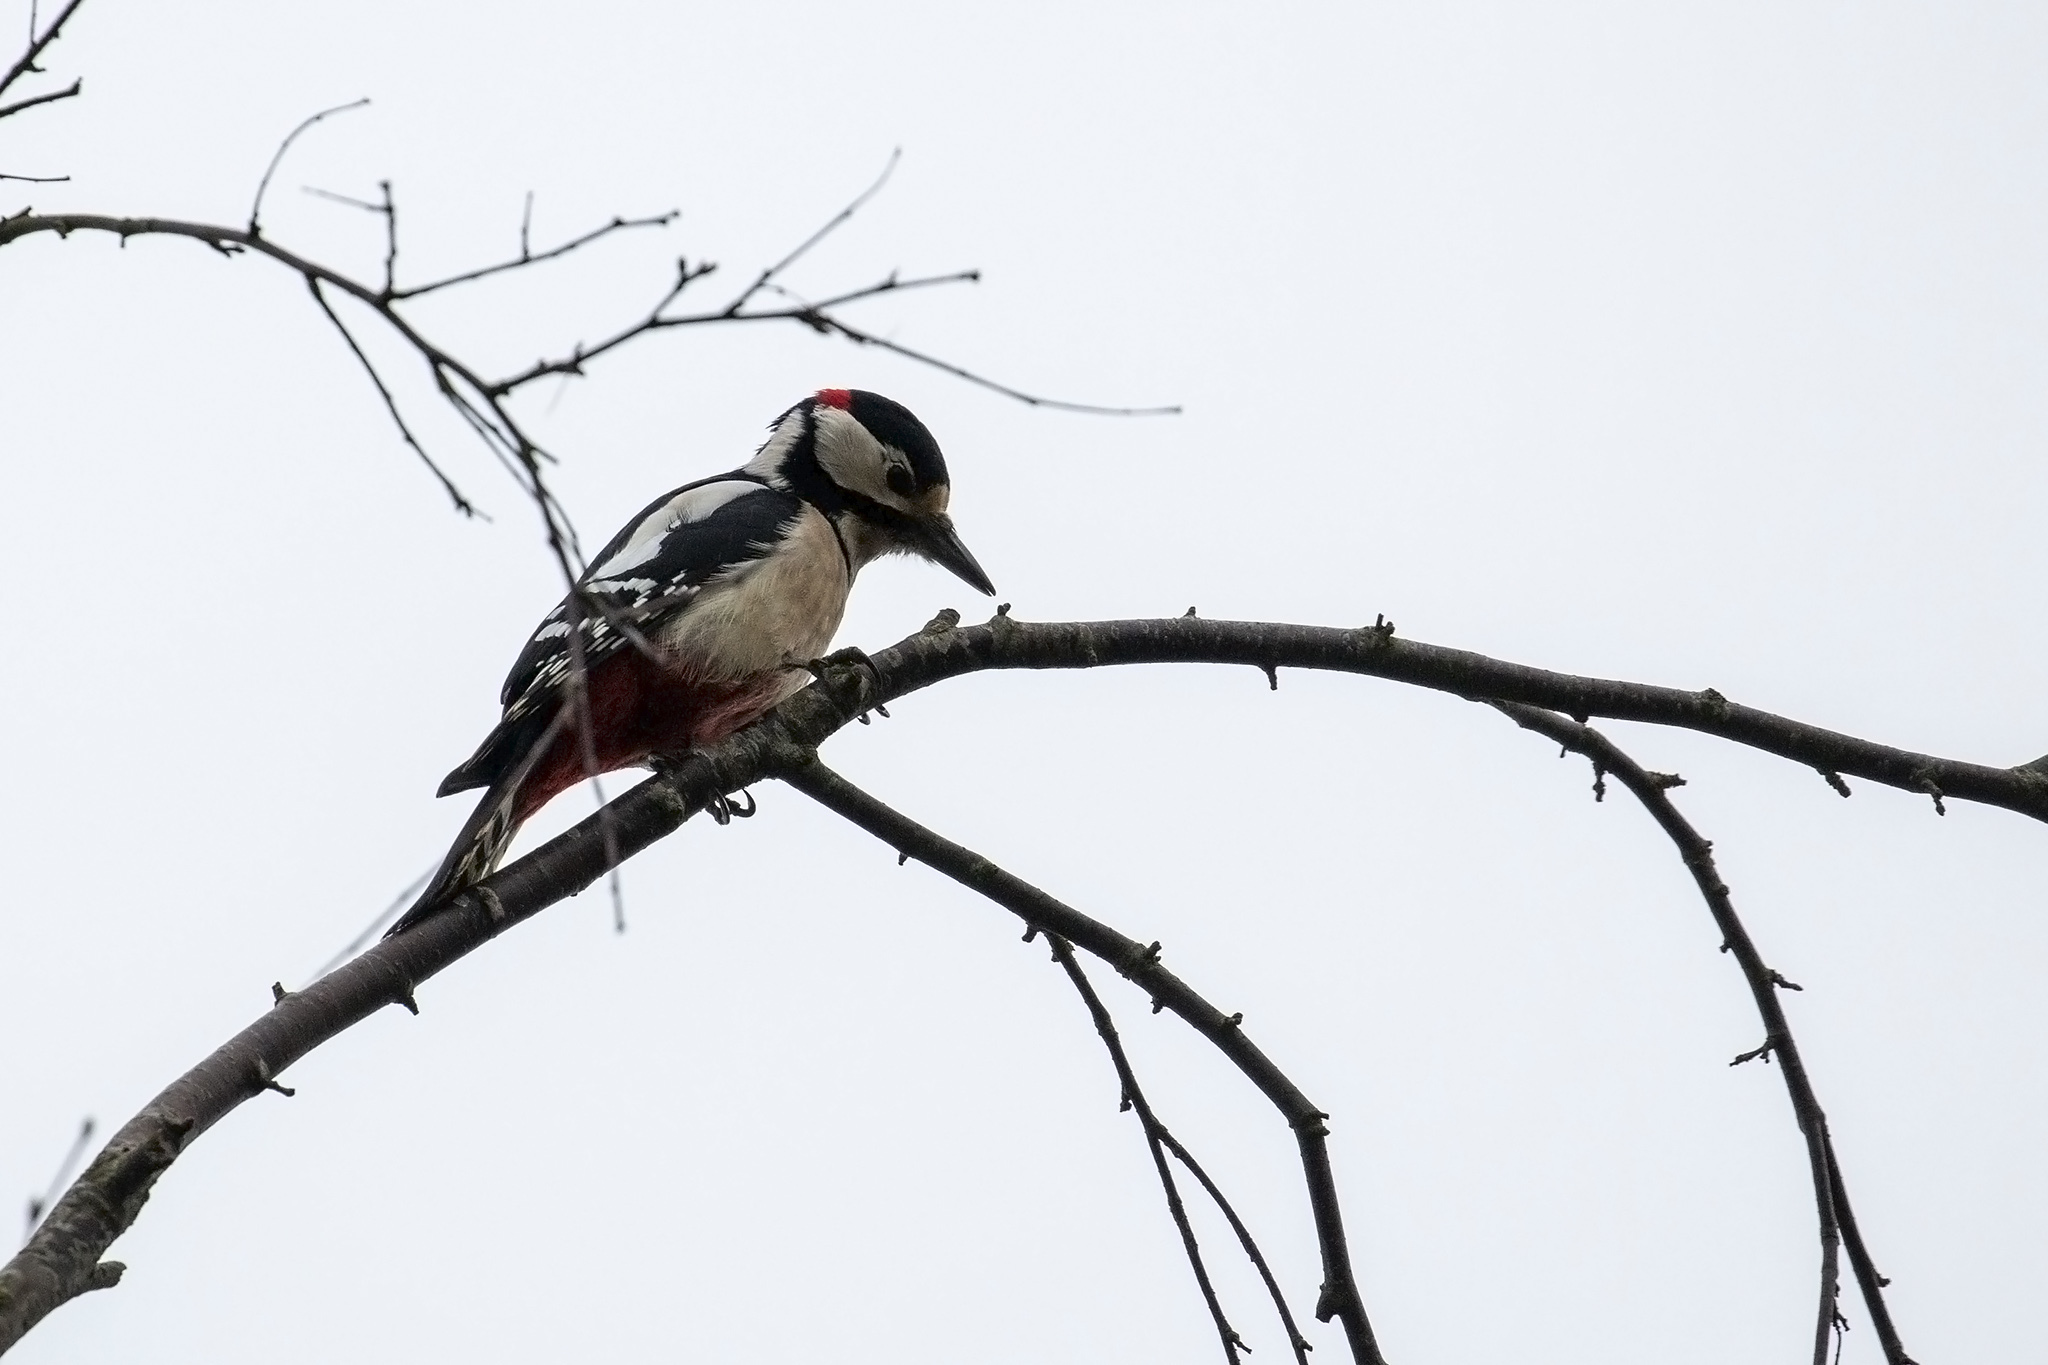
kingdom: Animalia
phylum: Chordata
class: Aves
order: Piciformes
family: Picidae
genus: Dendrocopos
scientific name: Dendrocopos major
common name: Great spotted woodpecker
